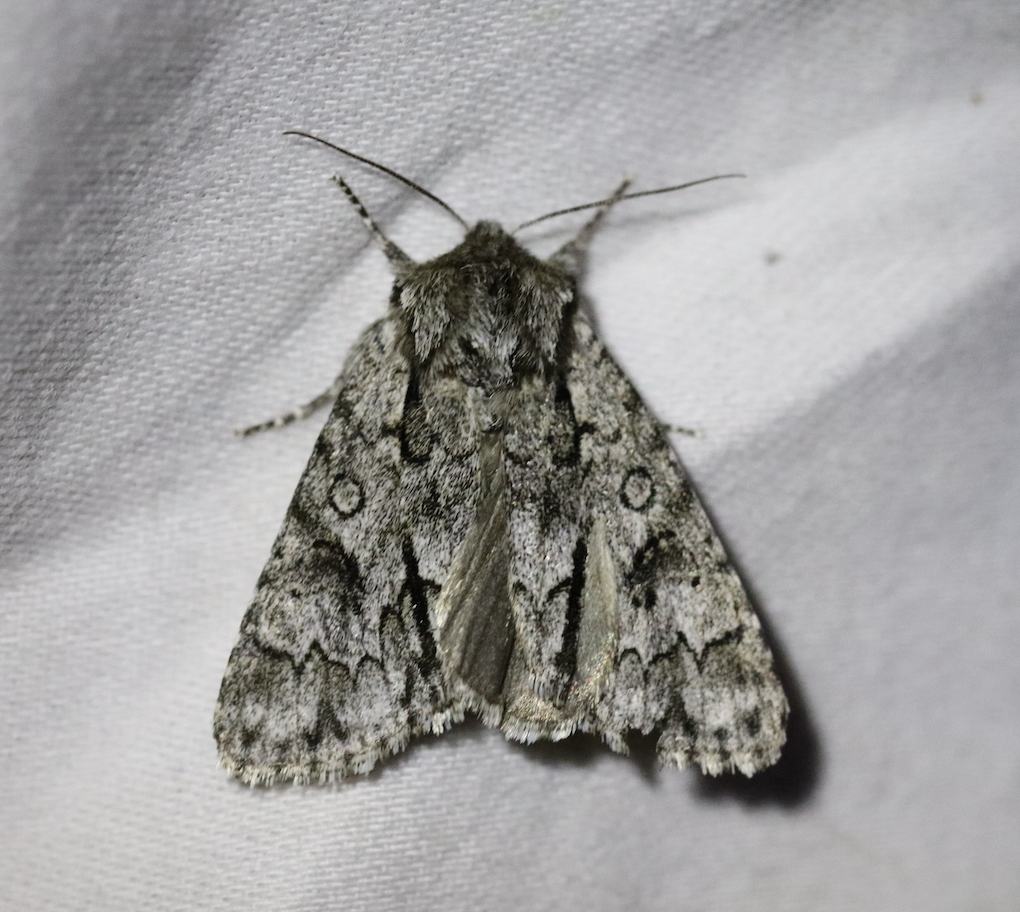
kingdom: Animalia
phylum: Arthropoda
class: Insecta
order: Lepidoptera
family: Noctuidae
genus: Acronicta
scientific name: Acronicta auricoma
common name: Scarce dagger
